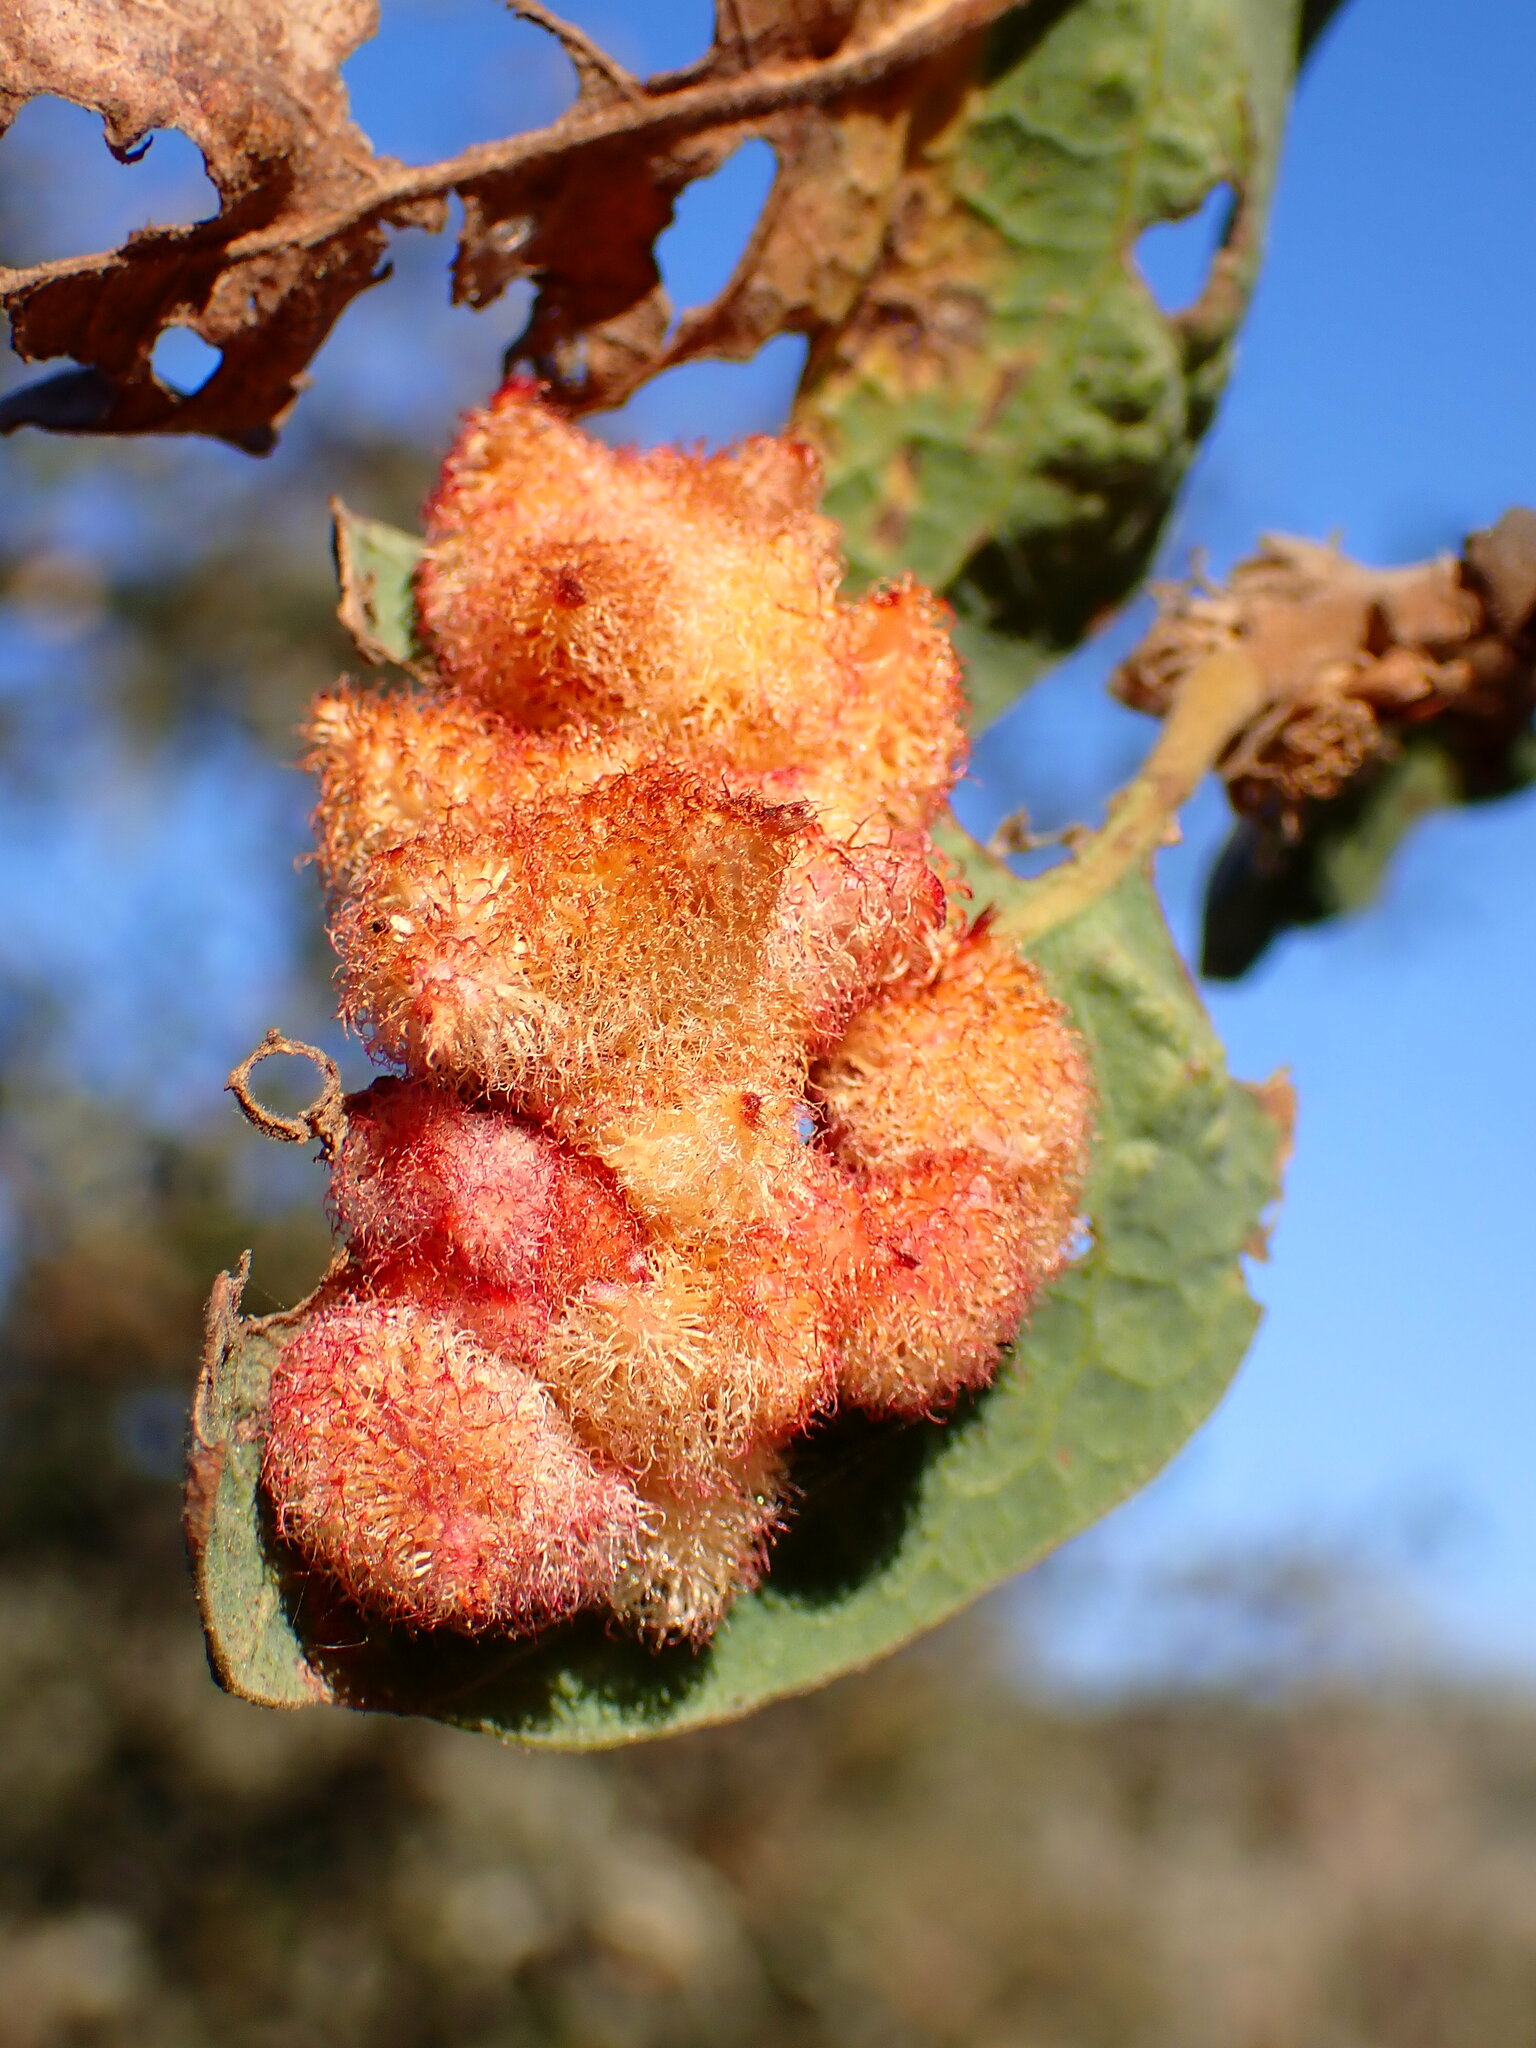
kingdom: Animalia
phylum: Arthropoda
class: Insecta
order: Hymenoptera
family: Cynipidae
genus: Andricus
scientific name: Andricus
